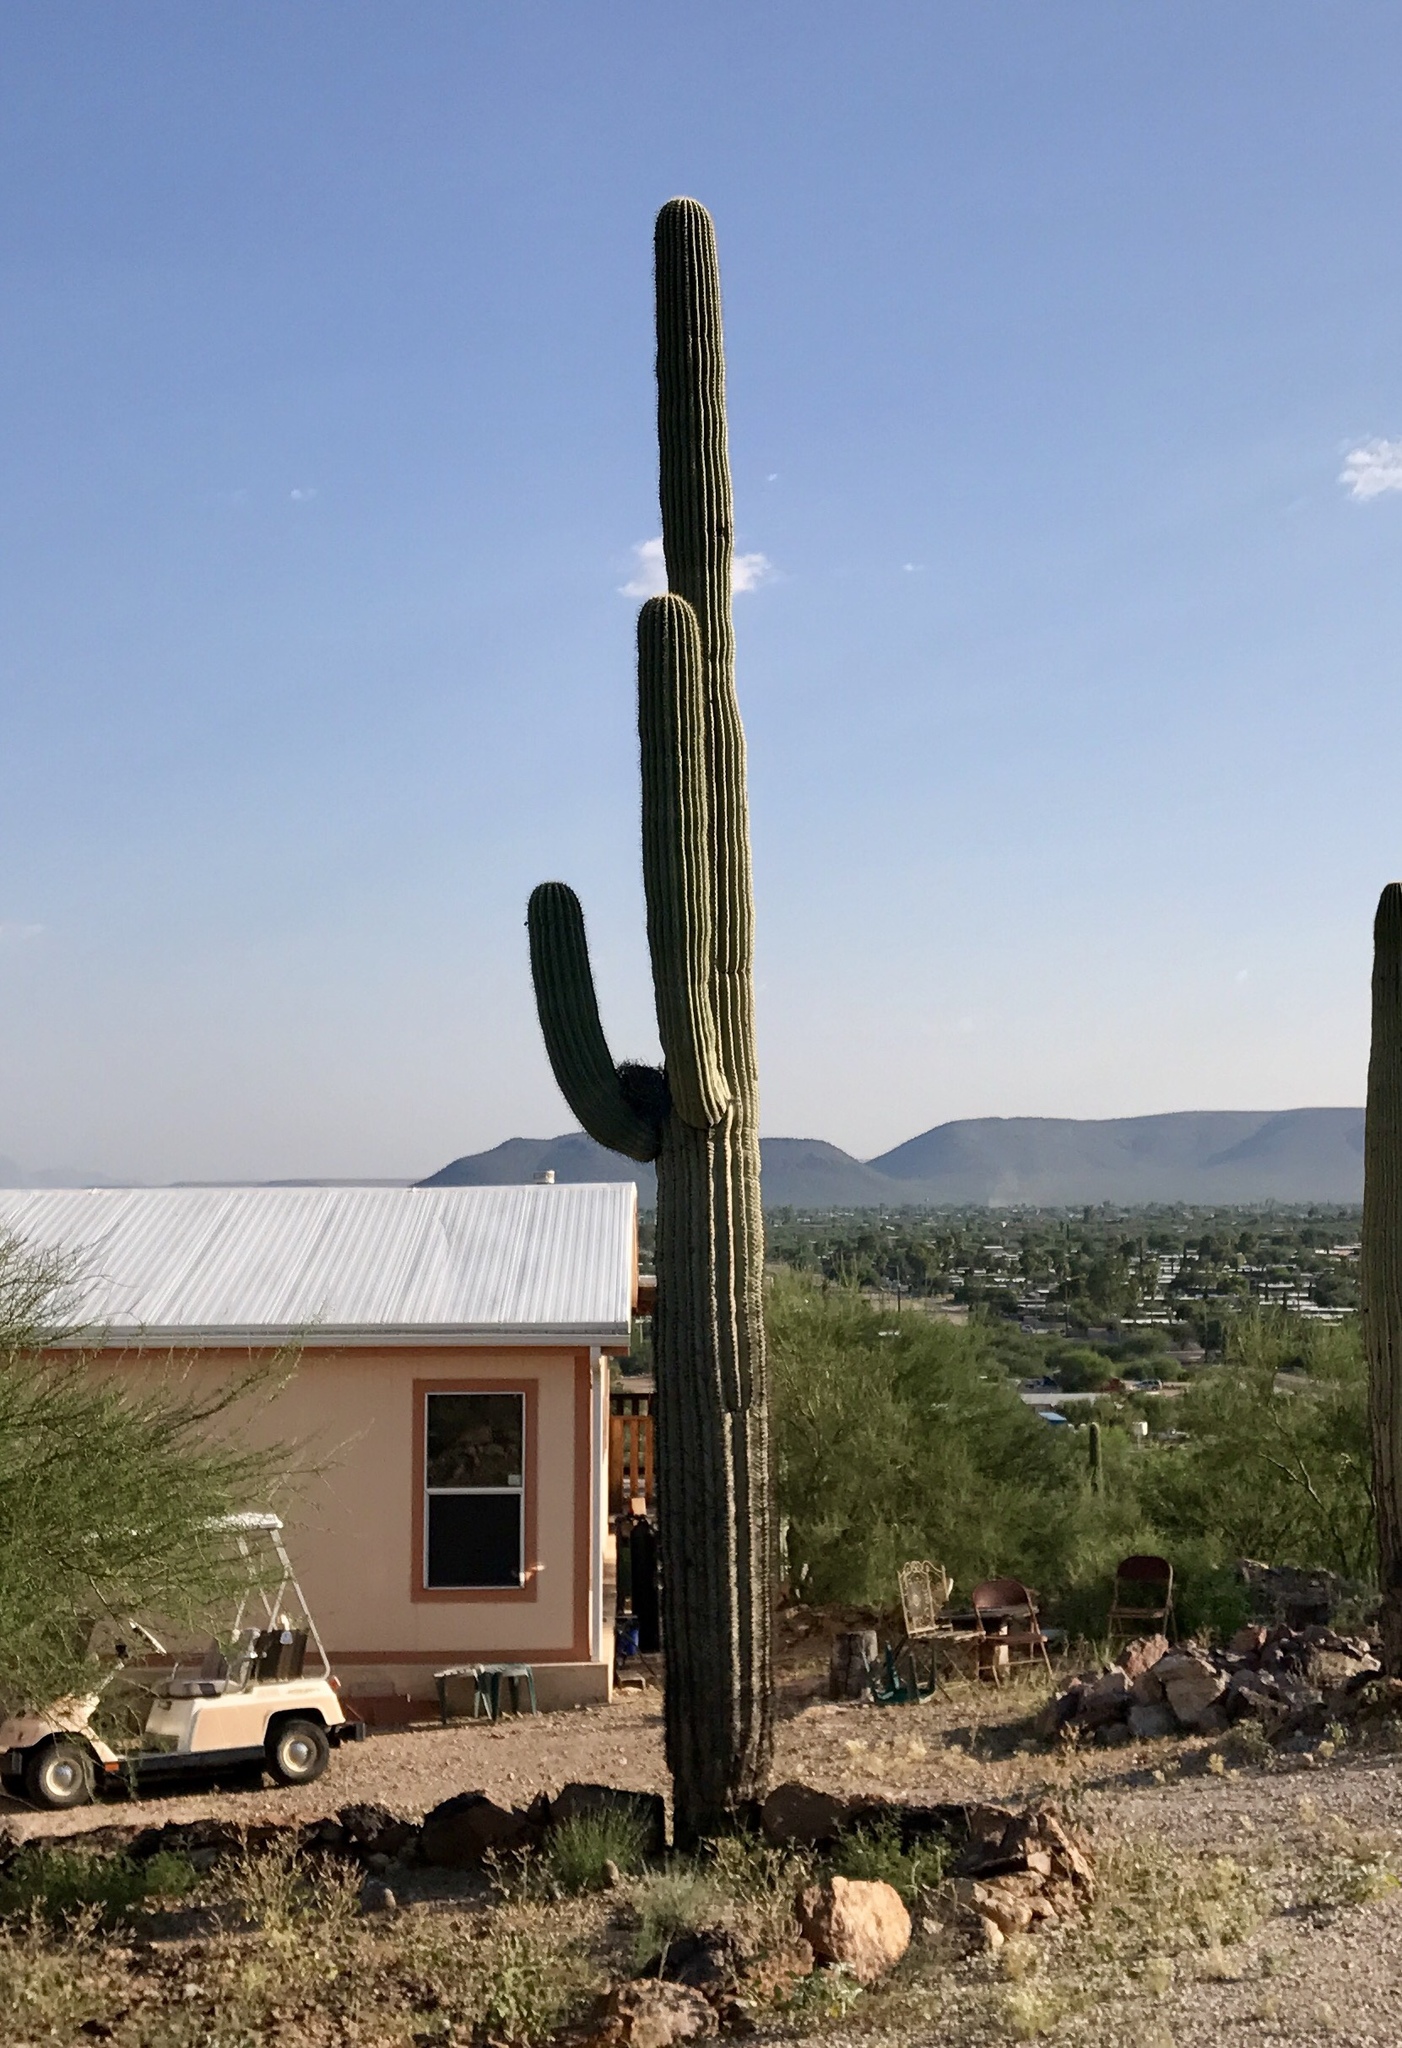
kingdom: Plantae
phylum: Tracheophyta
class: Magnoliopsida
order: Caryophyllales
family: Cactaceae
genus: Carnegiea
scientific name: Carnegiea gigantea
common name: Saguaro
